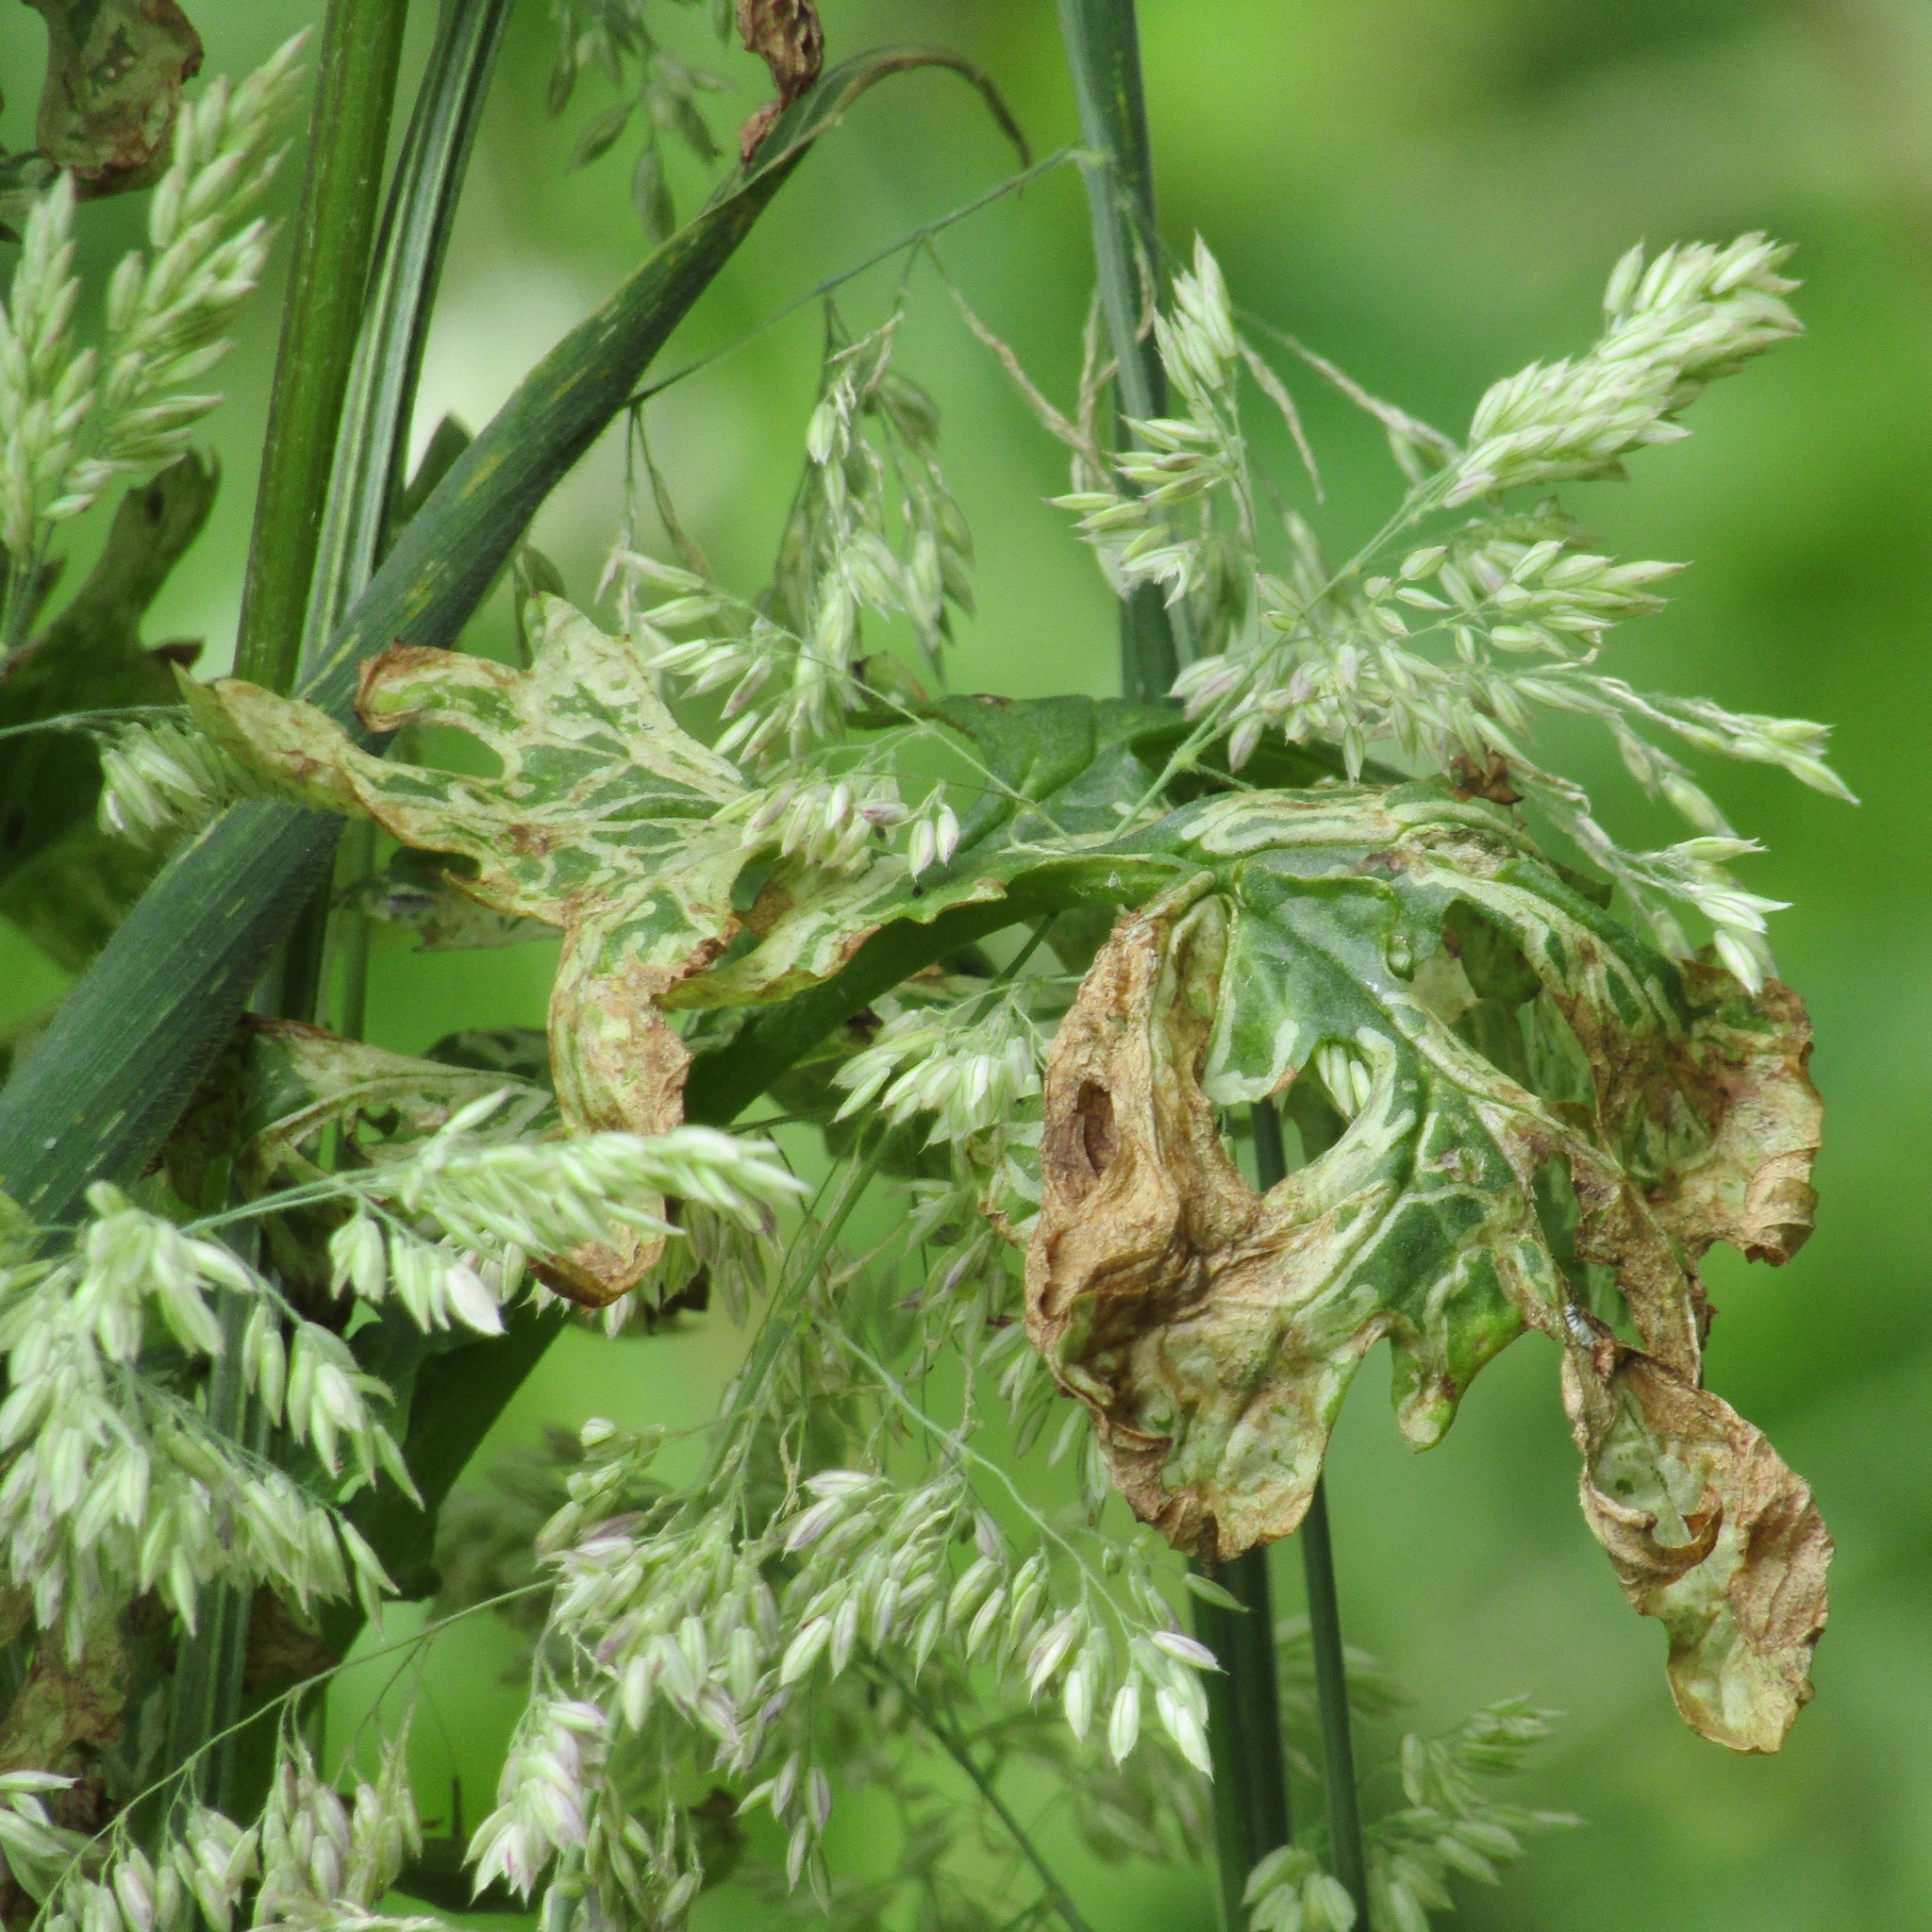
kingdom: Animalia
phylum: Arthropoda
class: Insecta
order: Diptera
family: Agromyzidae
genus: Phytomyza
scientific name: Phytomyza syngenesiae
